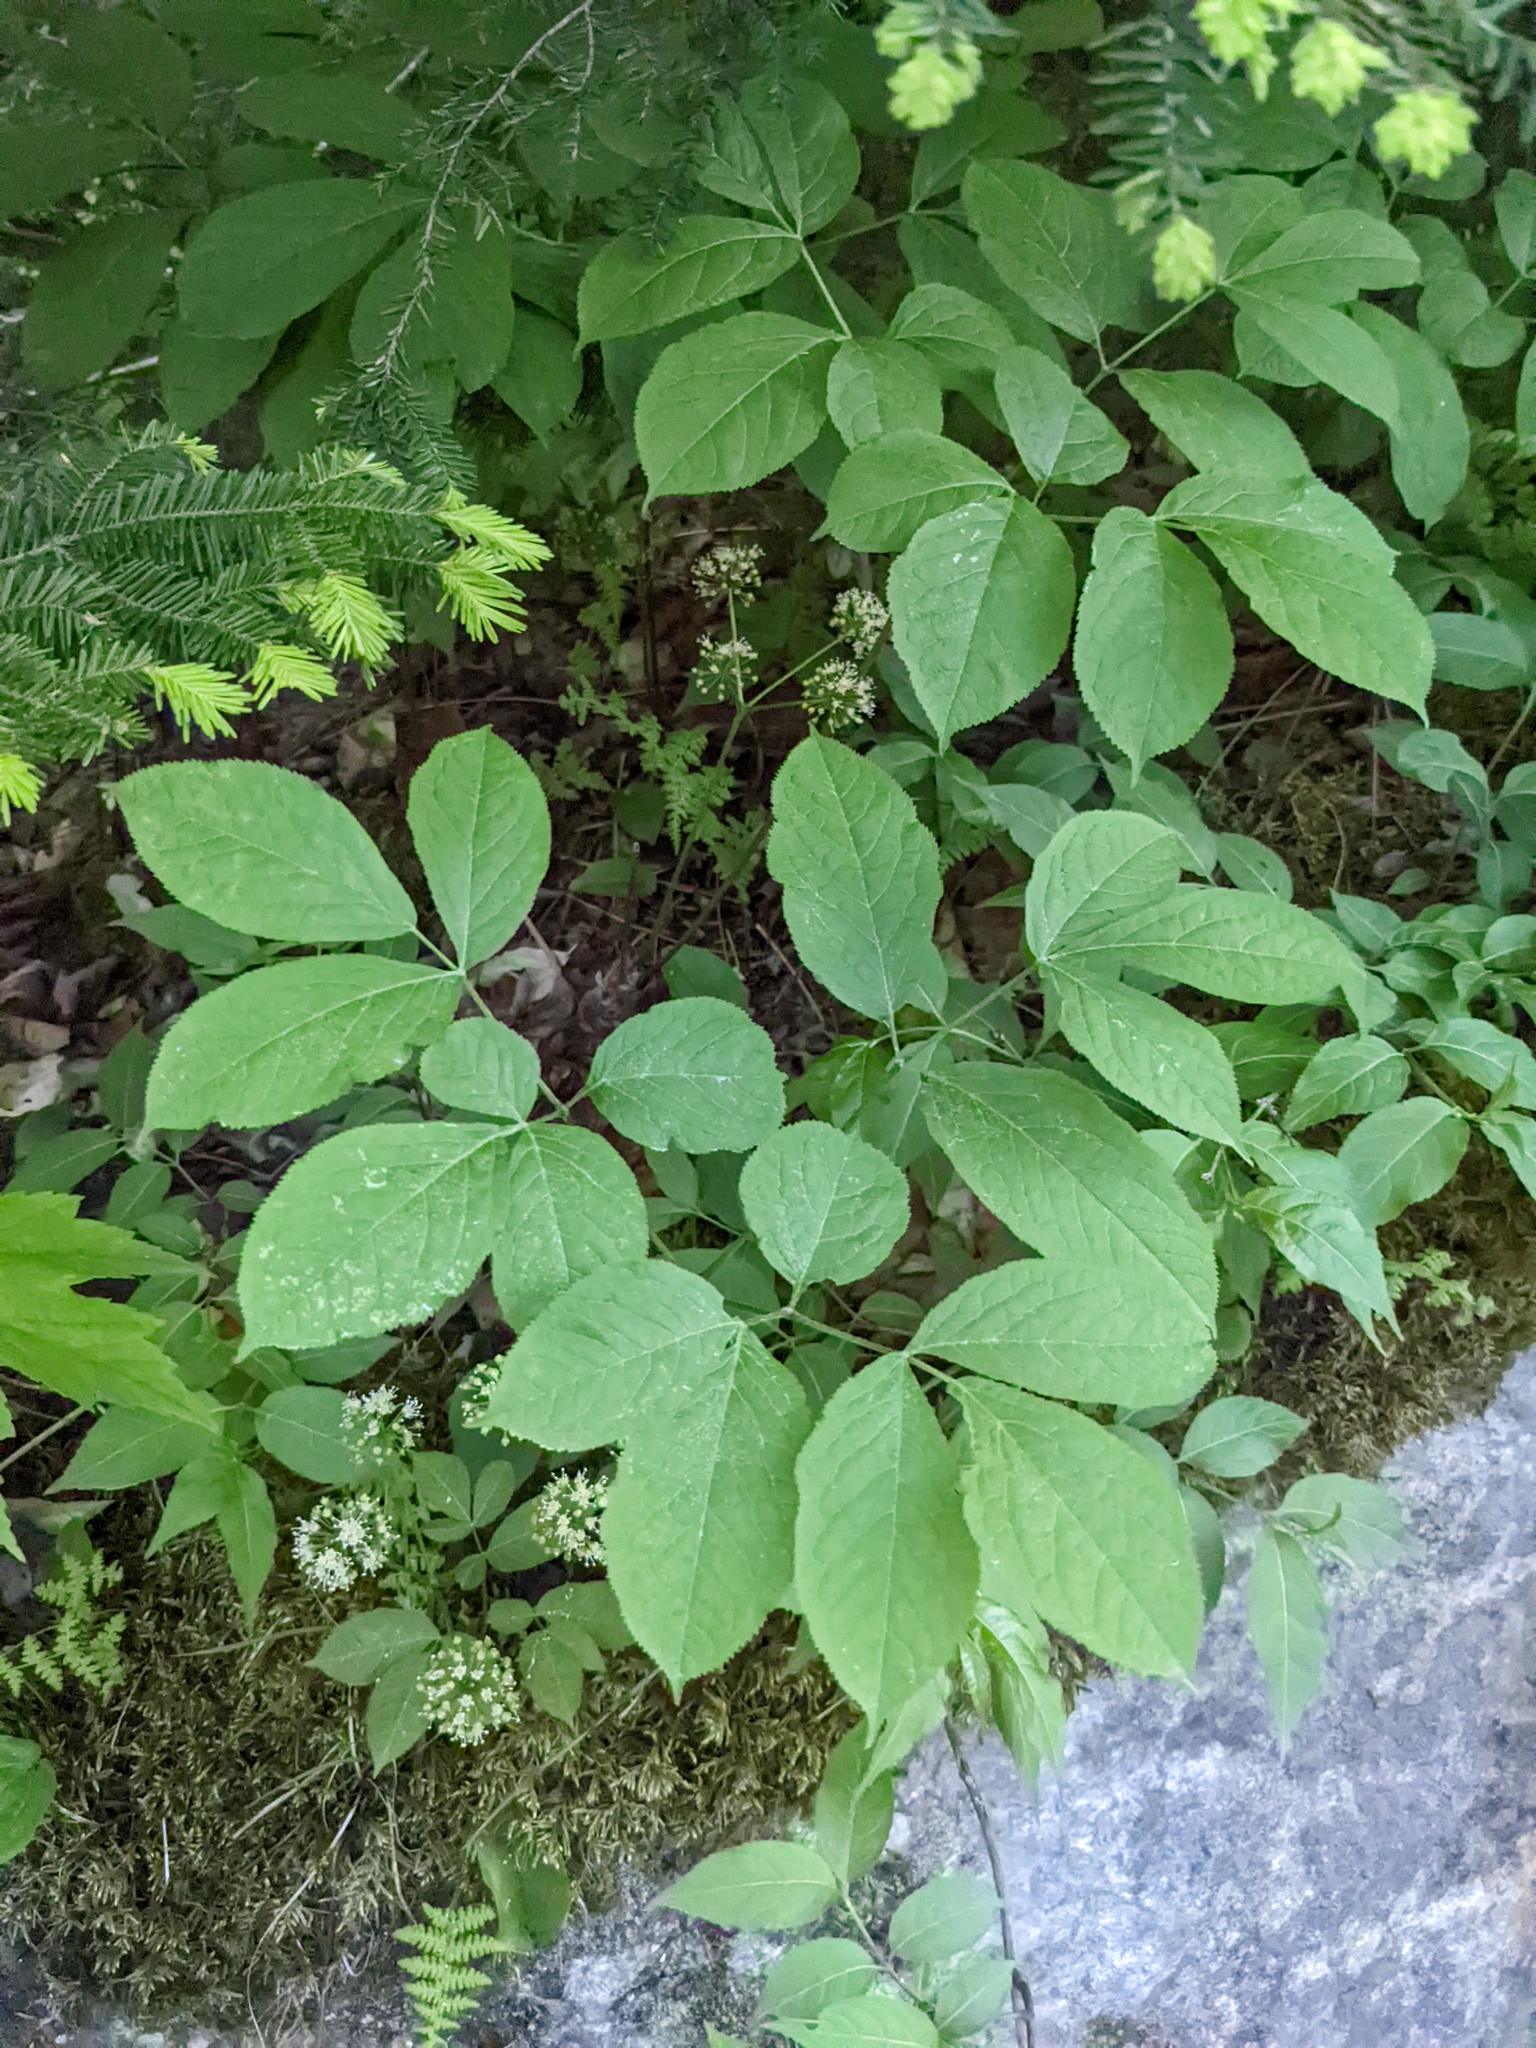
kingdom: Plantae
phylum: Tracheophyta
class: Magnoliopsida
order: Apiales
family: Araliaceae
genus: Aralia
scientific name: Aralia nudicaulis
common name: Wild sarsaparilla
